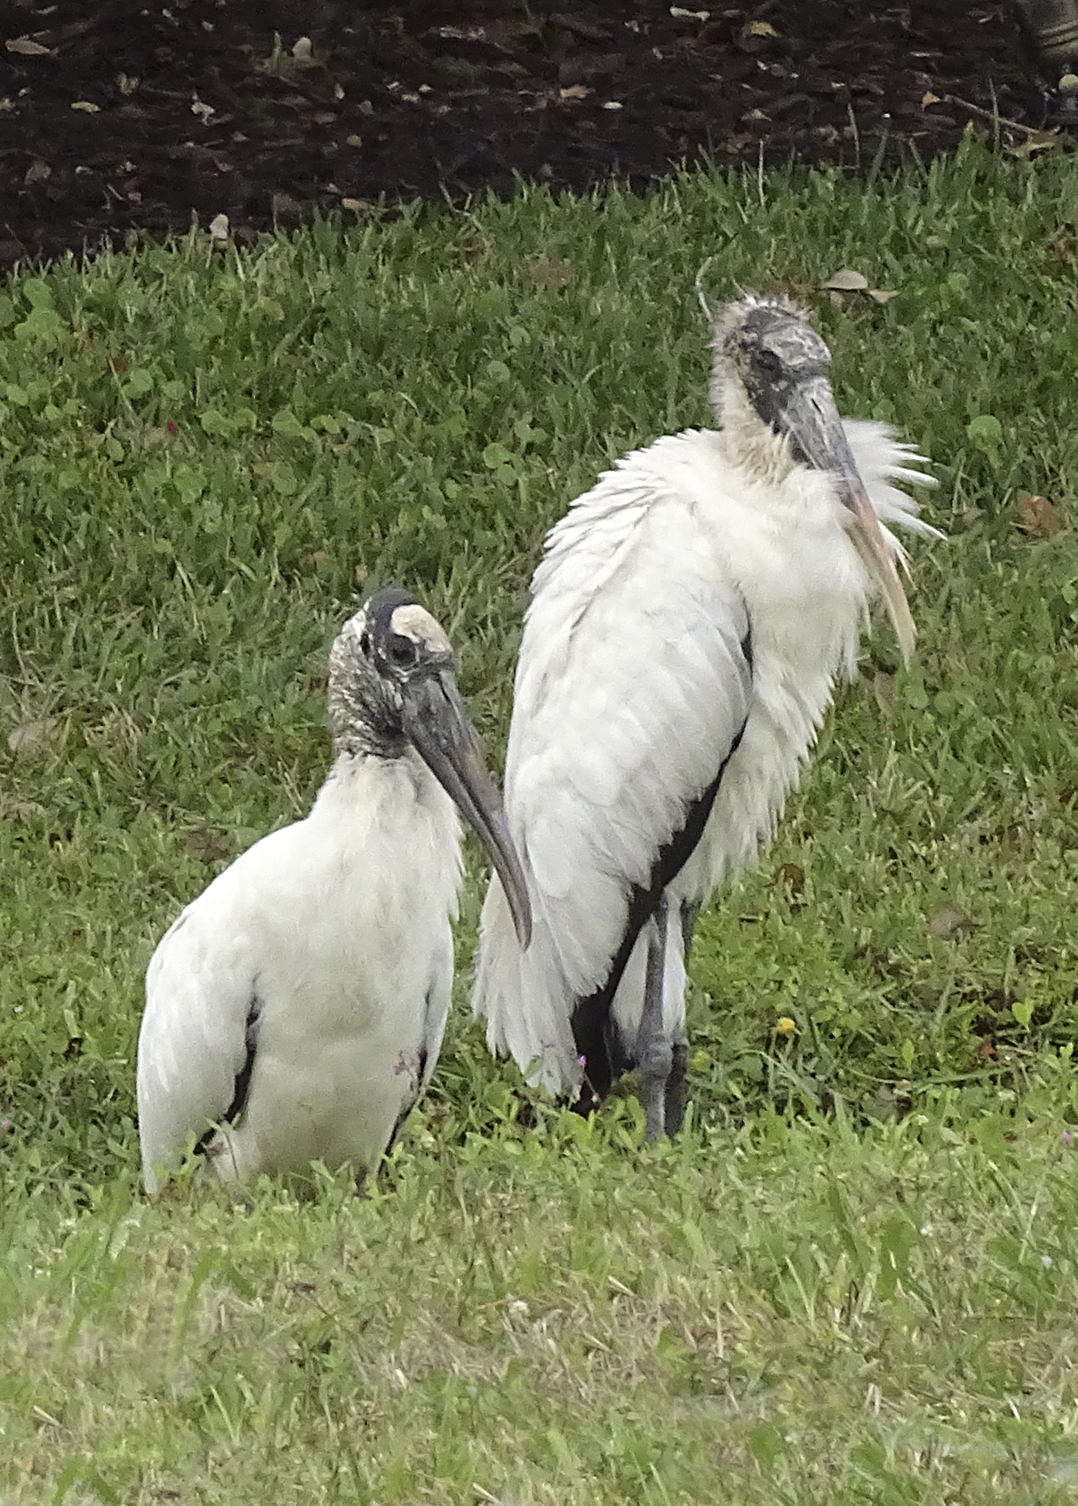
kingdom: Animalia
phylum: Chordata
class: Aves
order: Ciconiiformes
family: Ciconiidae
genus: Mycteria
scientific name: Mycteria americana
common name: Wood stork
